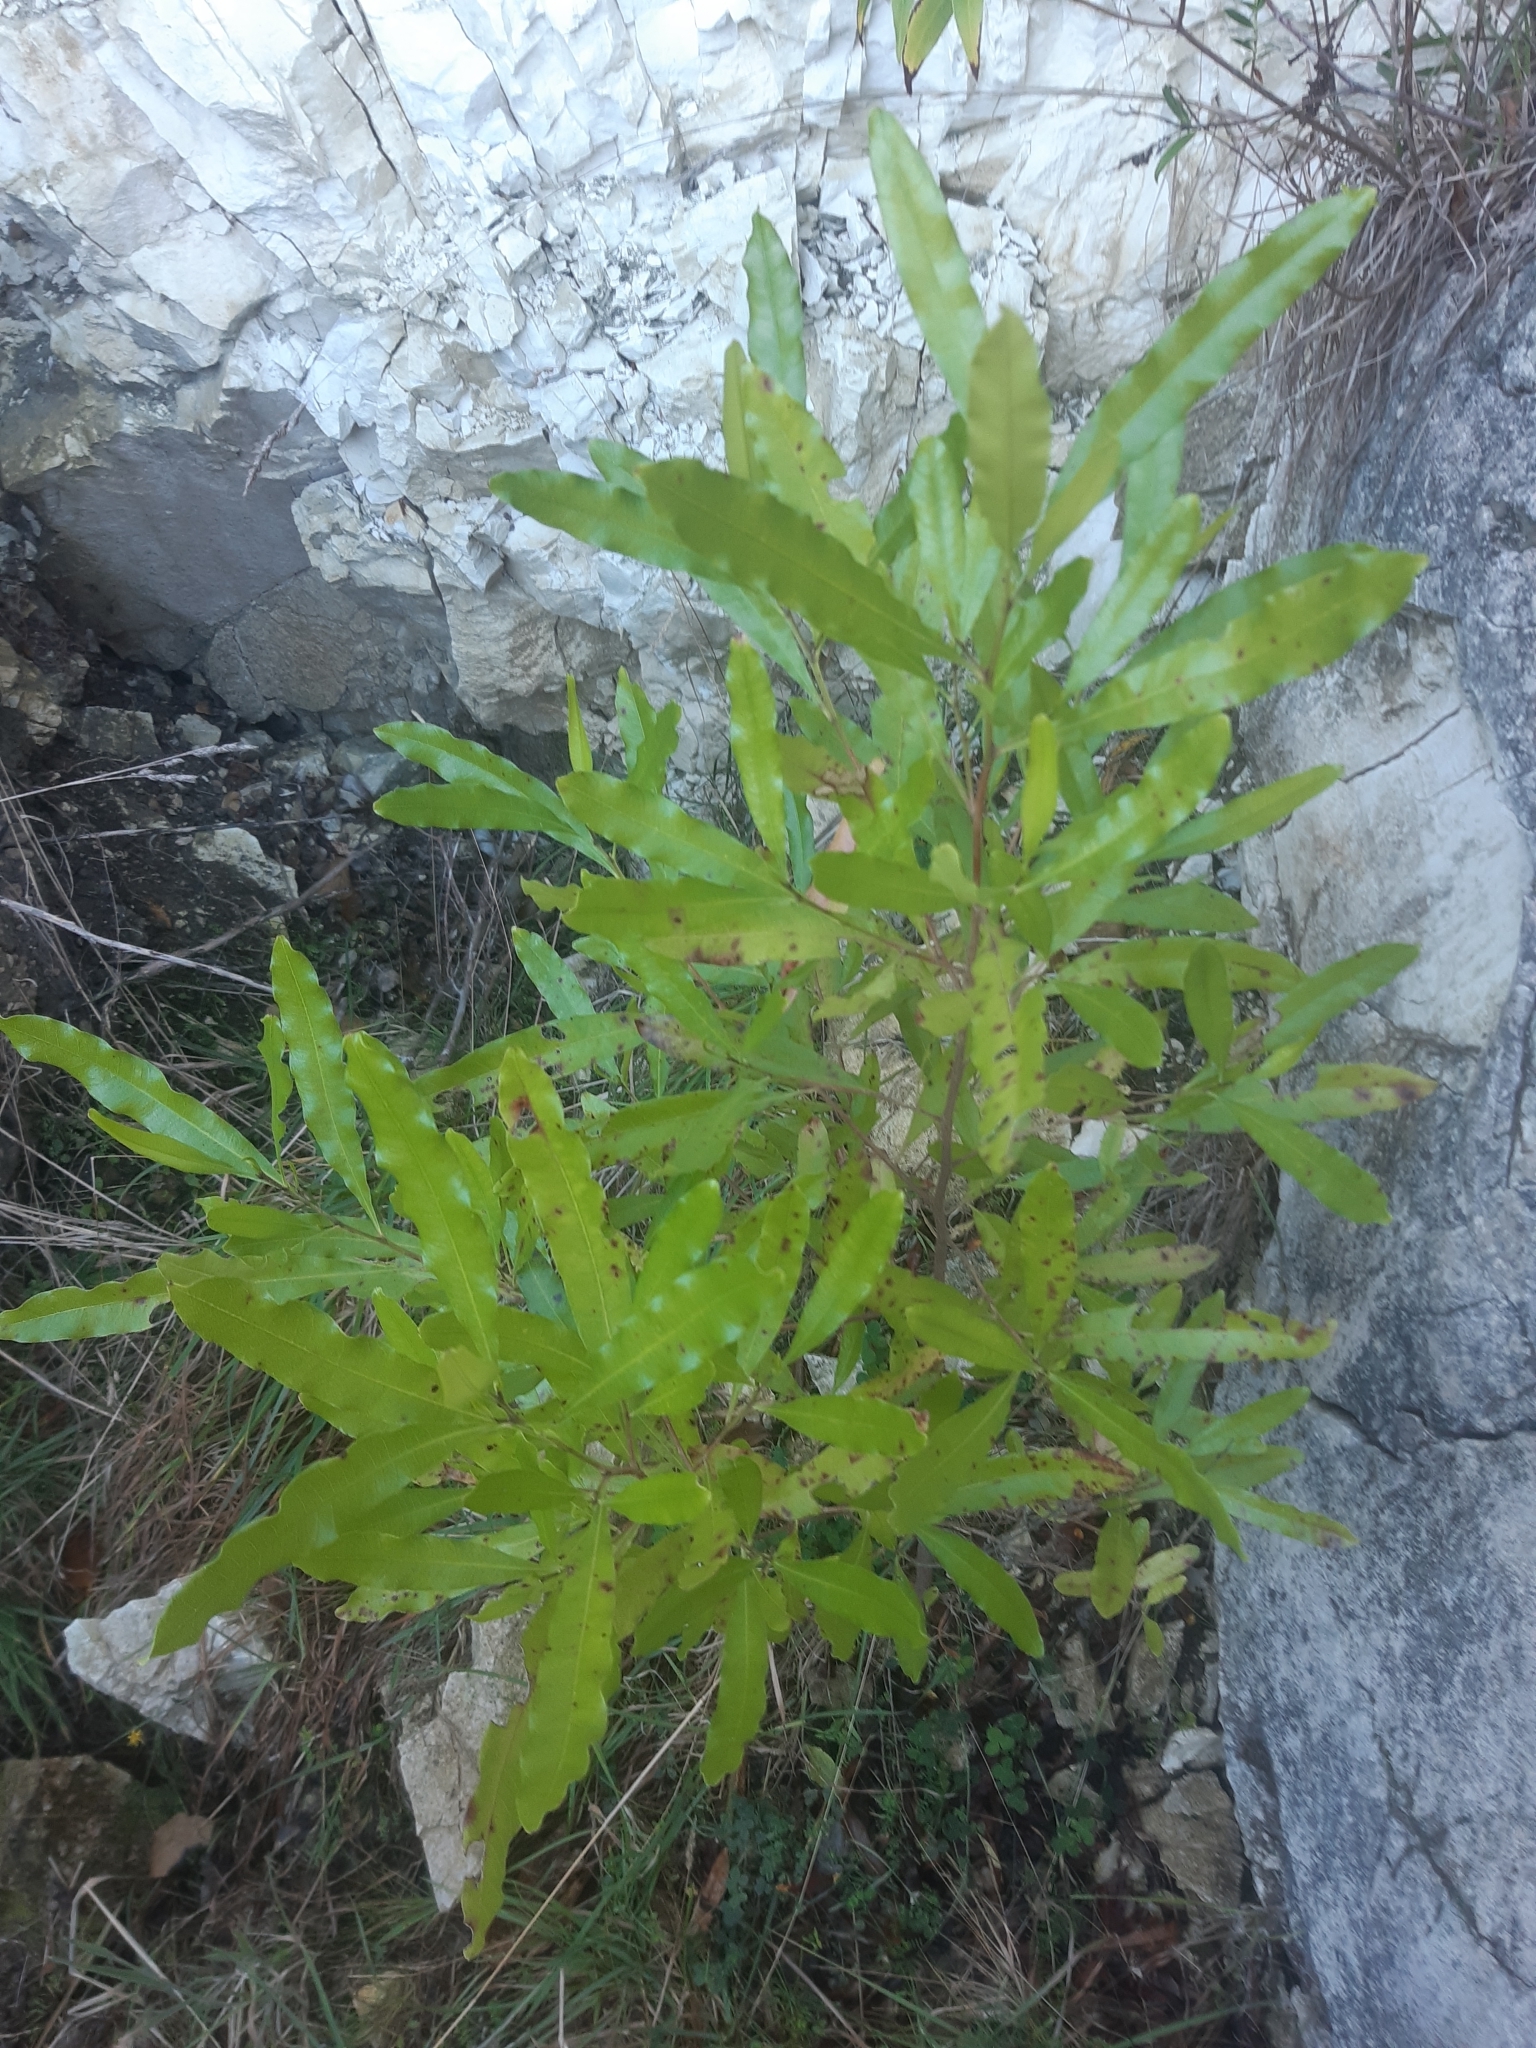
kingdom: Plantae
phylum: Tracheophyta
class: Magnoliopsida
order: Sapindales
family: Sapindaceae
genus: Dodonaea
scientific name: Dodonaea viscosa
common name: Hopbush
